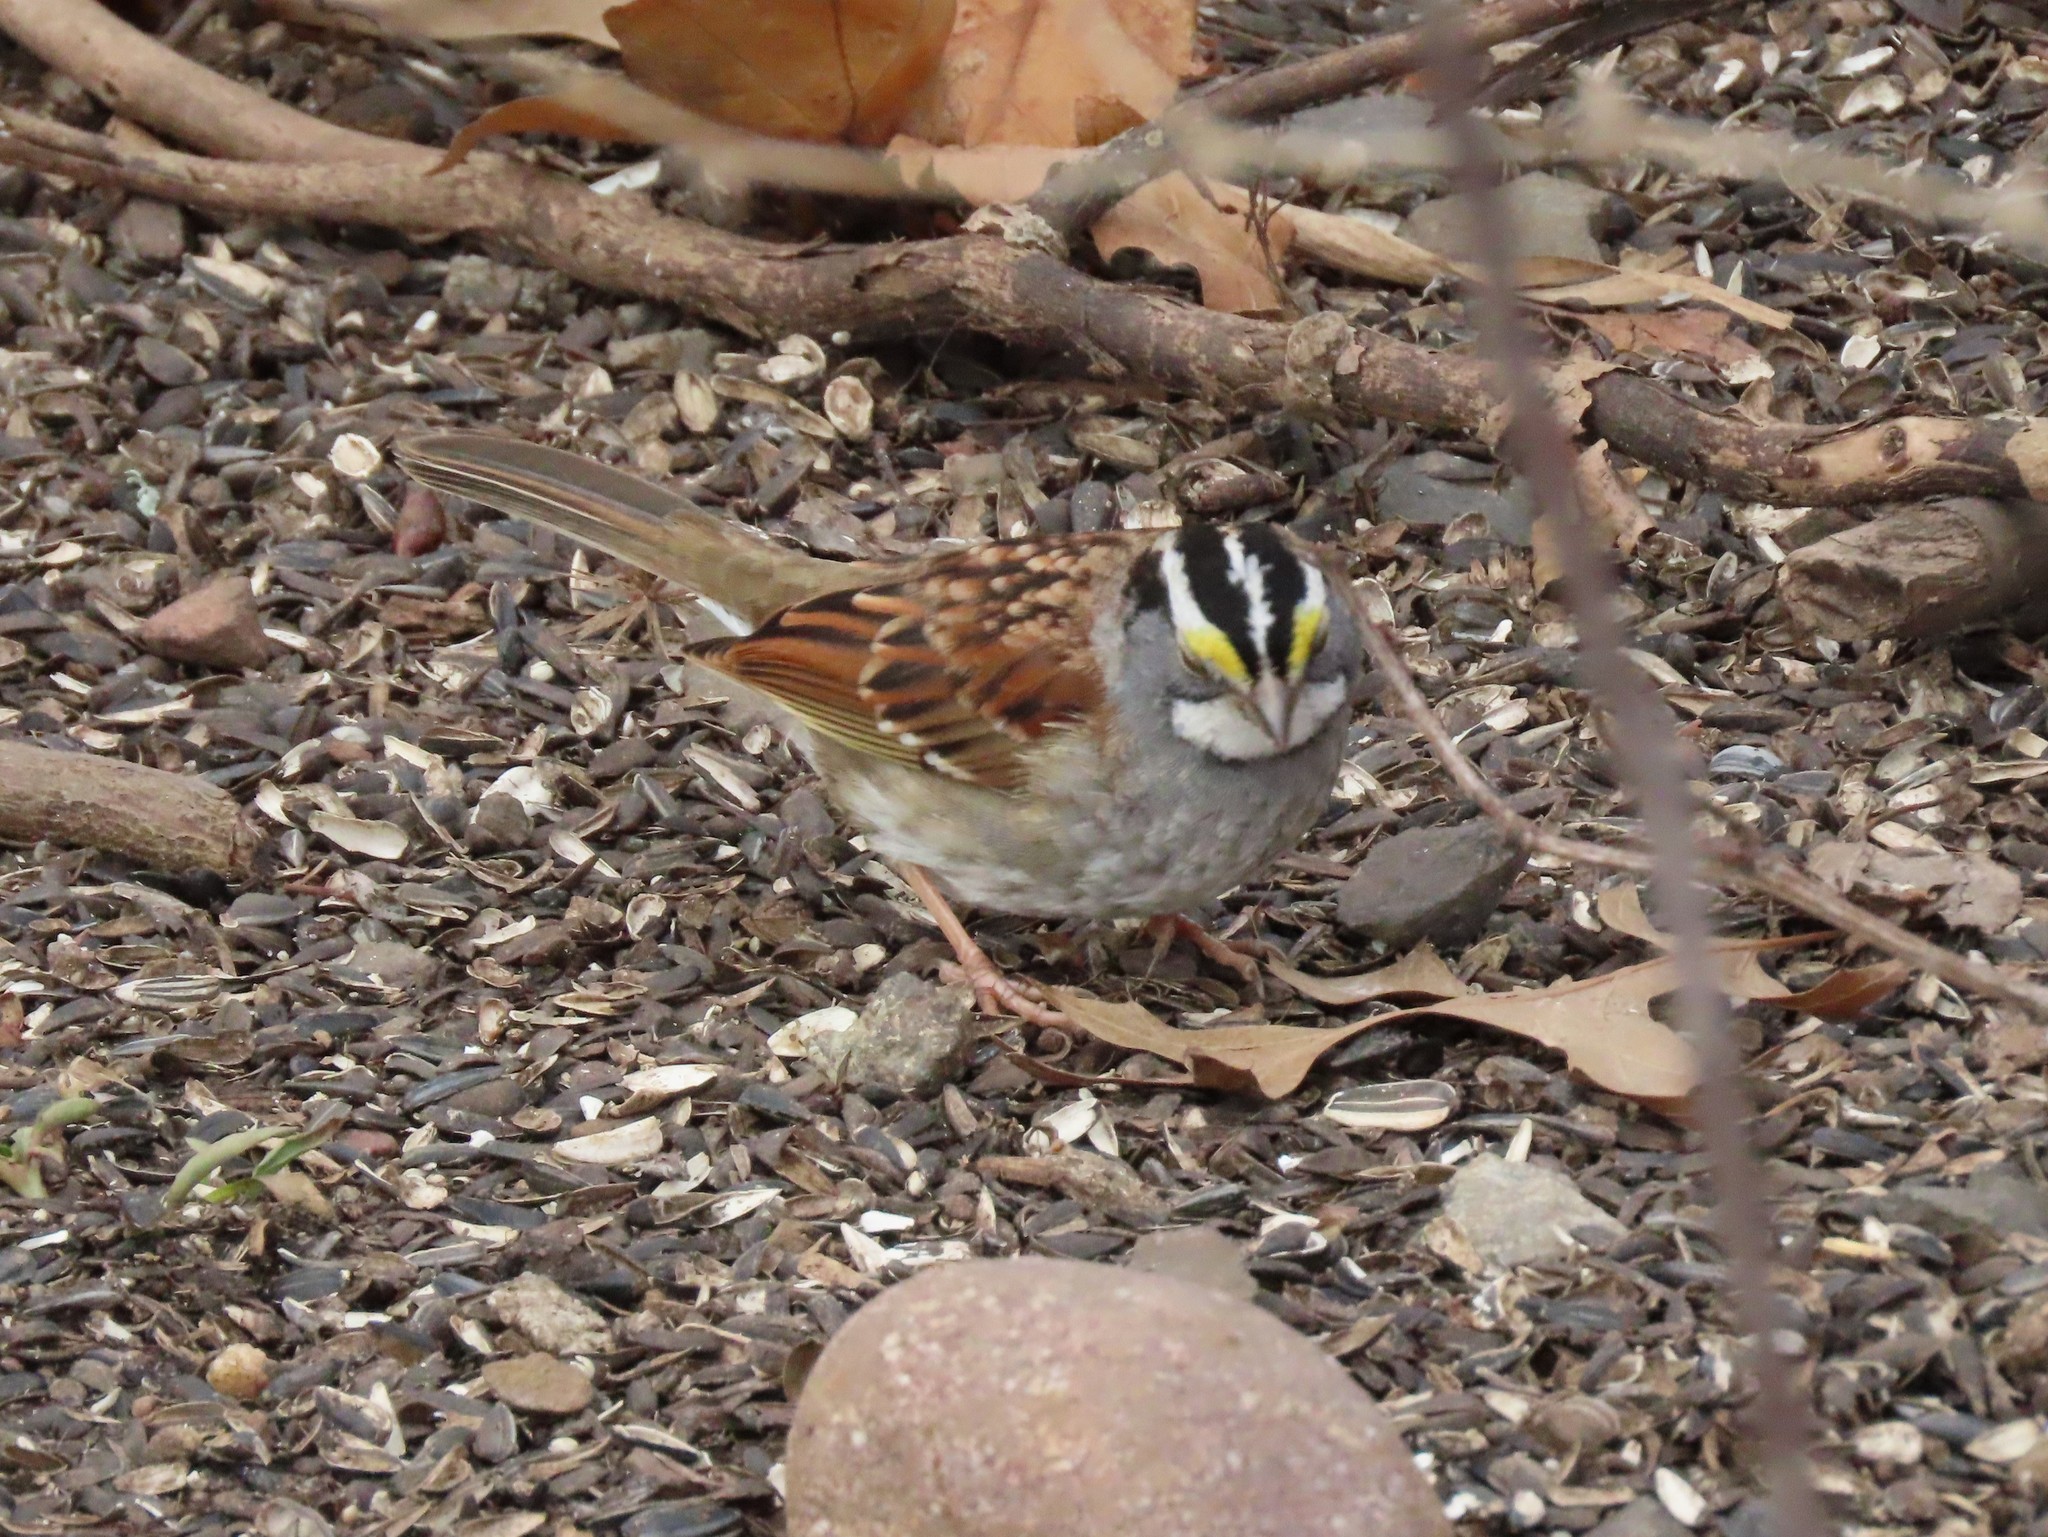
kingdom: Animalia
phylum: Chordata
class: Aves
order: Passeriformes
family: Passerellidae
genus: Zonotrichia
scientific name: Zonotrichia albicollis
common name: White-throated sparrow
